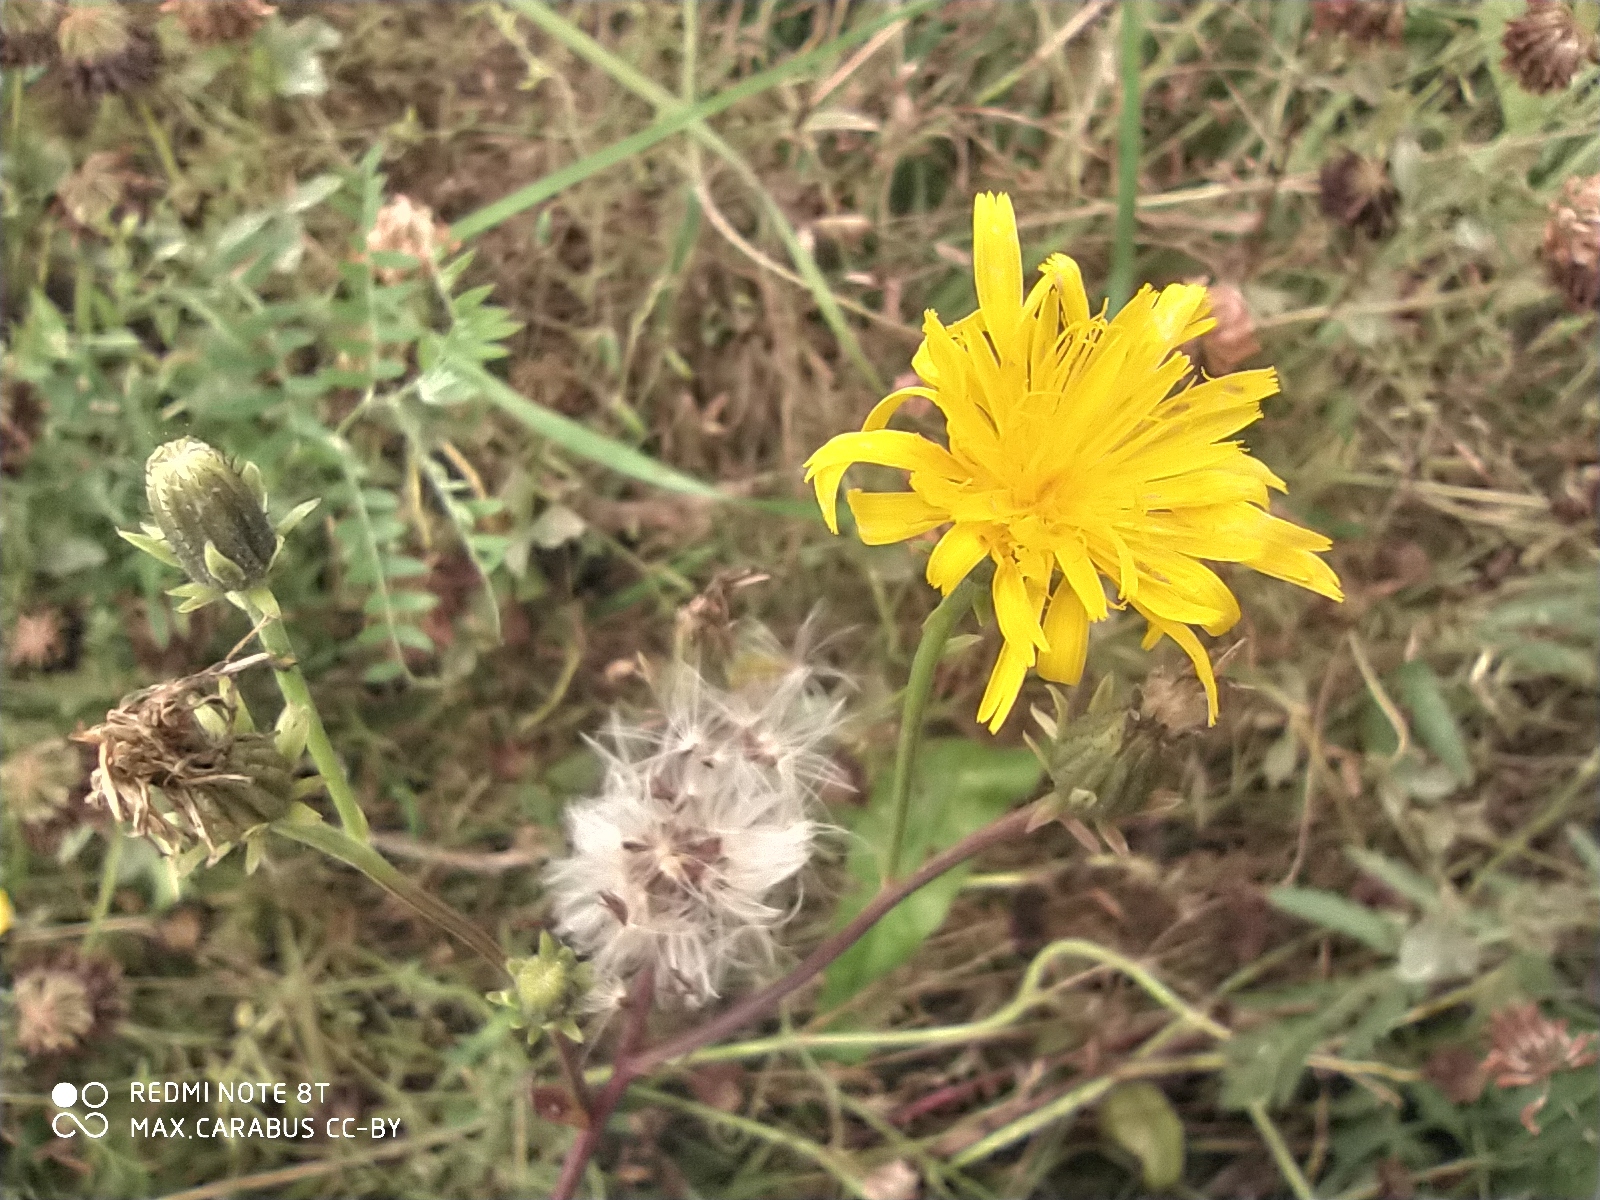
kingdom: Plantae
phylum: Tracheophyta
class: Magnoliopsida
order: Asterales
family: Asteraceae
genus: Picris
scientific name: Picris hieracioides
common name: Hawkweed oxtongue
